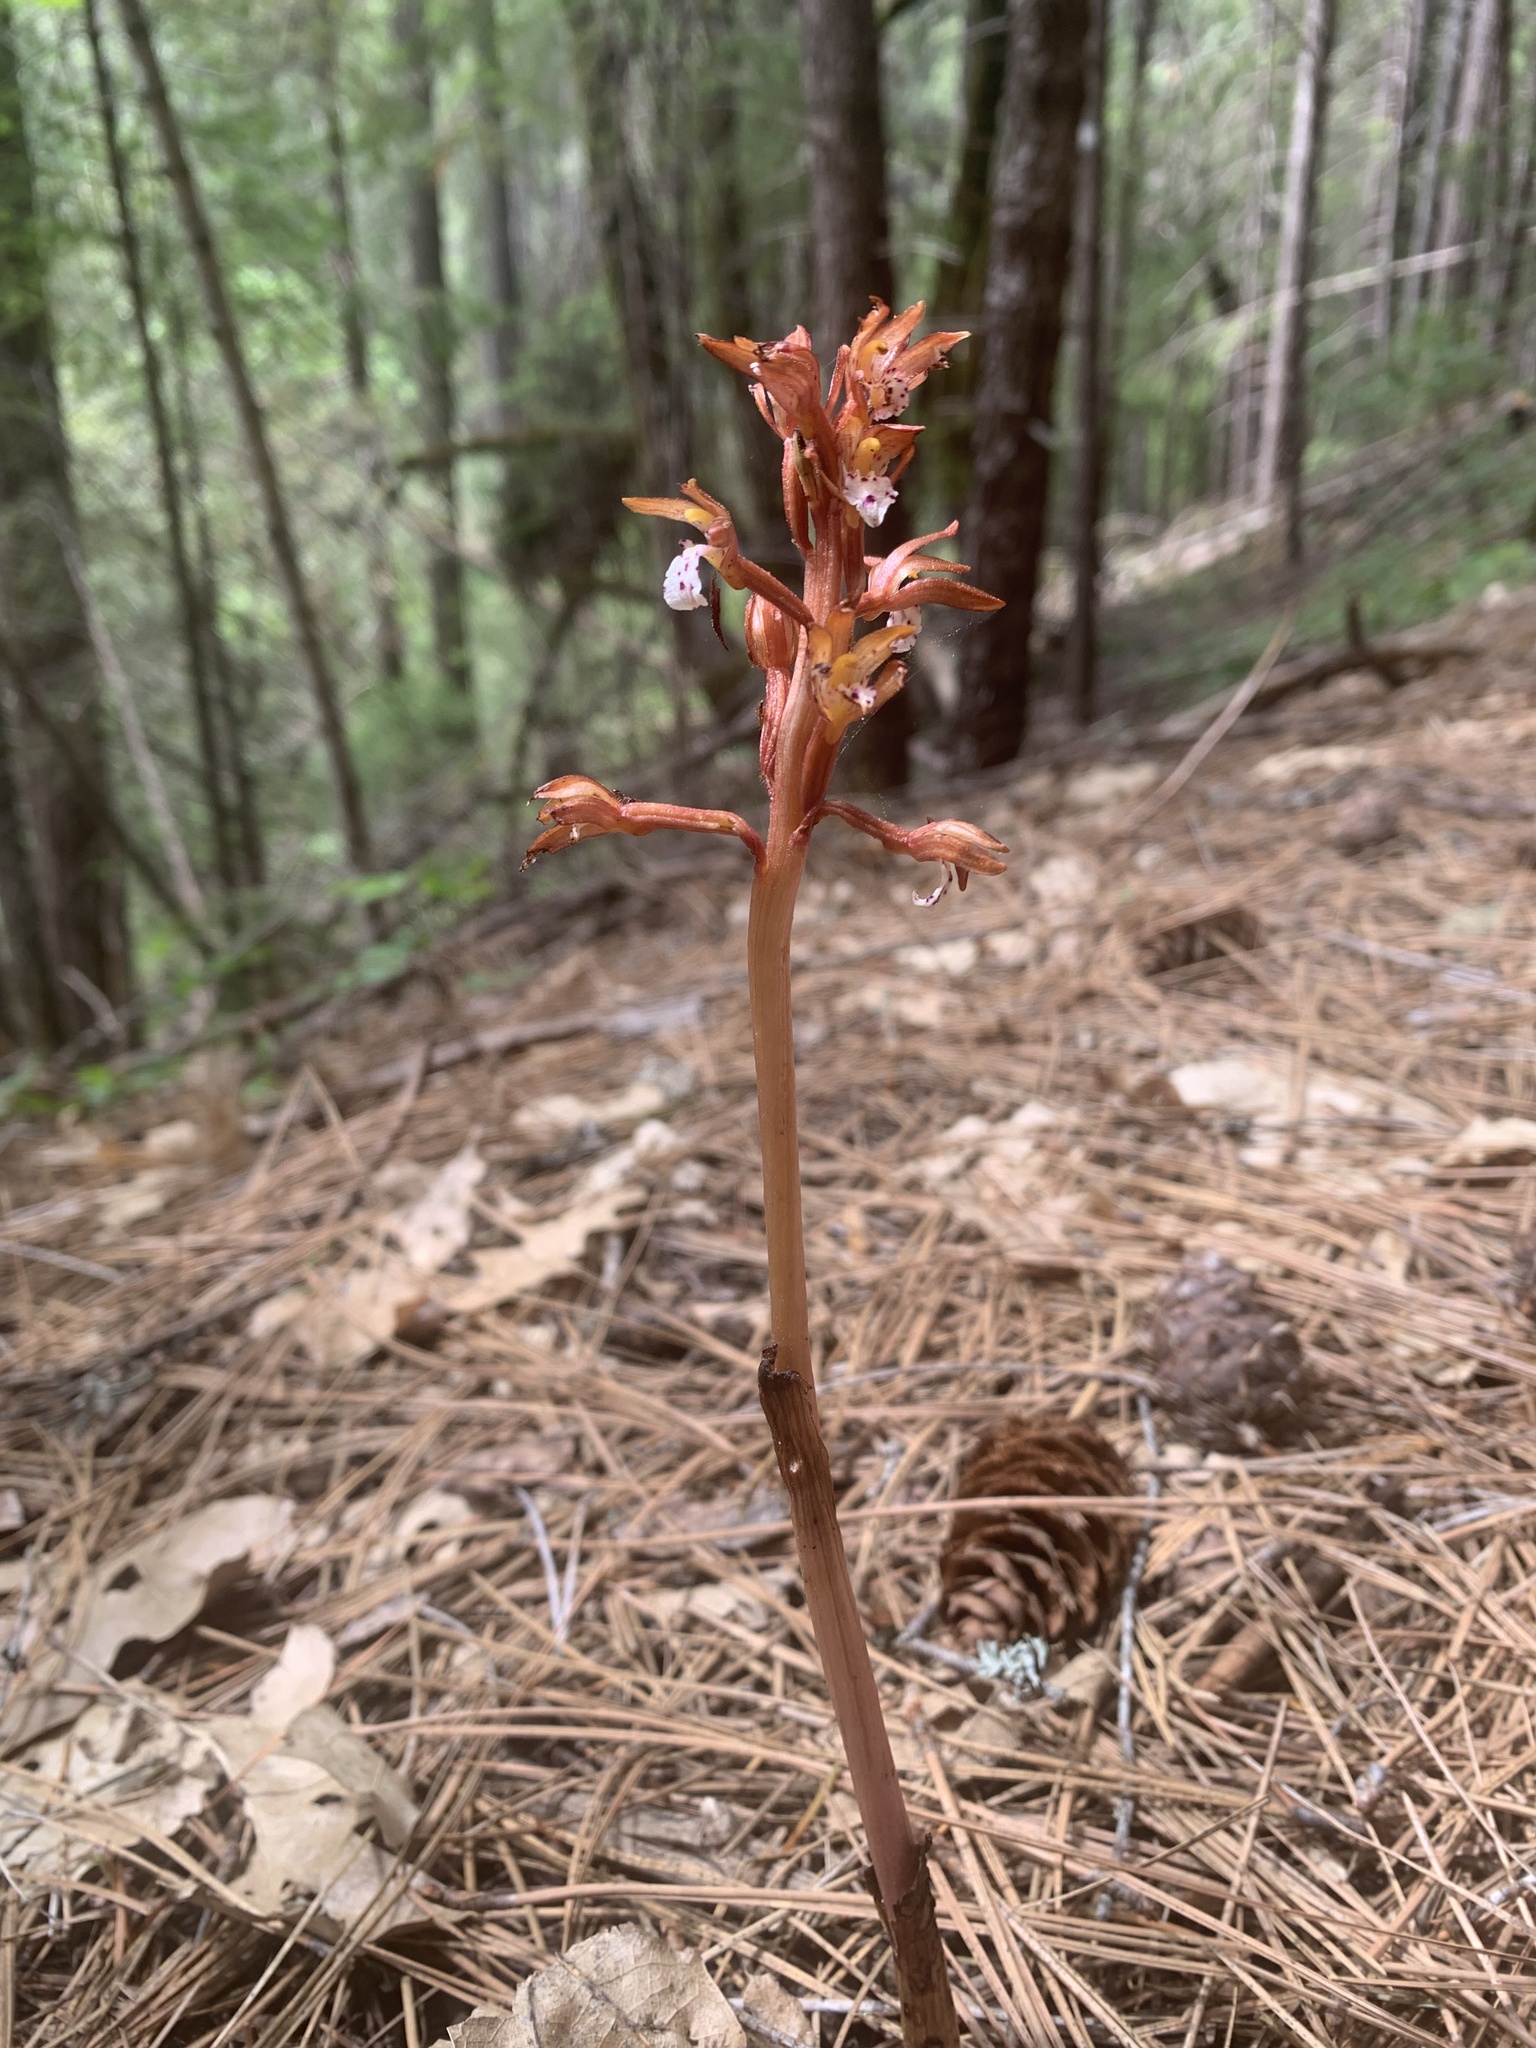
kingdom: Plantae
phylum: Tracheophyta
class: Liliopsida
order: Asparagales
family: Orchidaceae
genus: Corallorhiza
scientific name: Corallorhiza maculata
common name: Spotted coralroot
